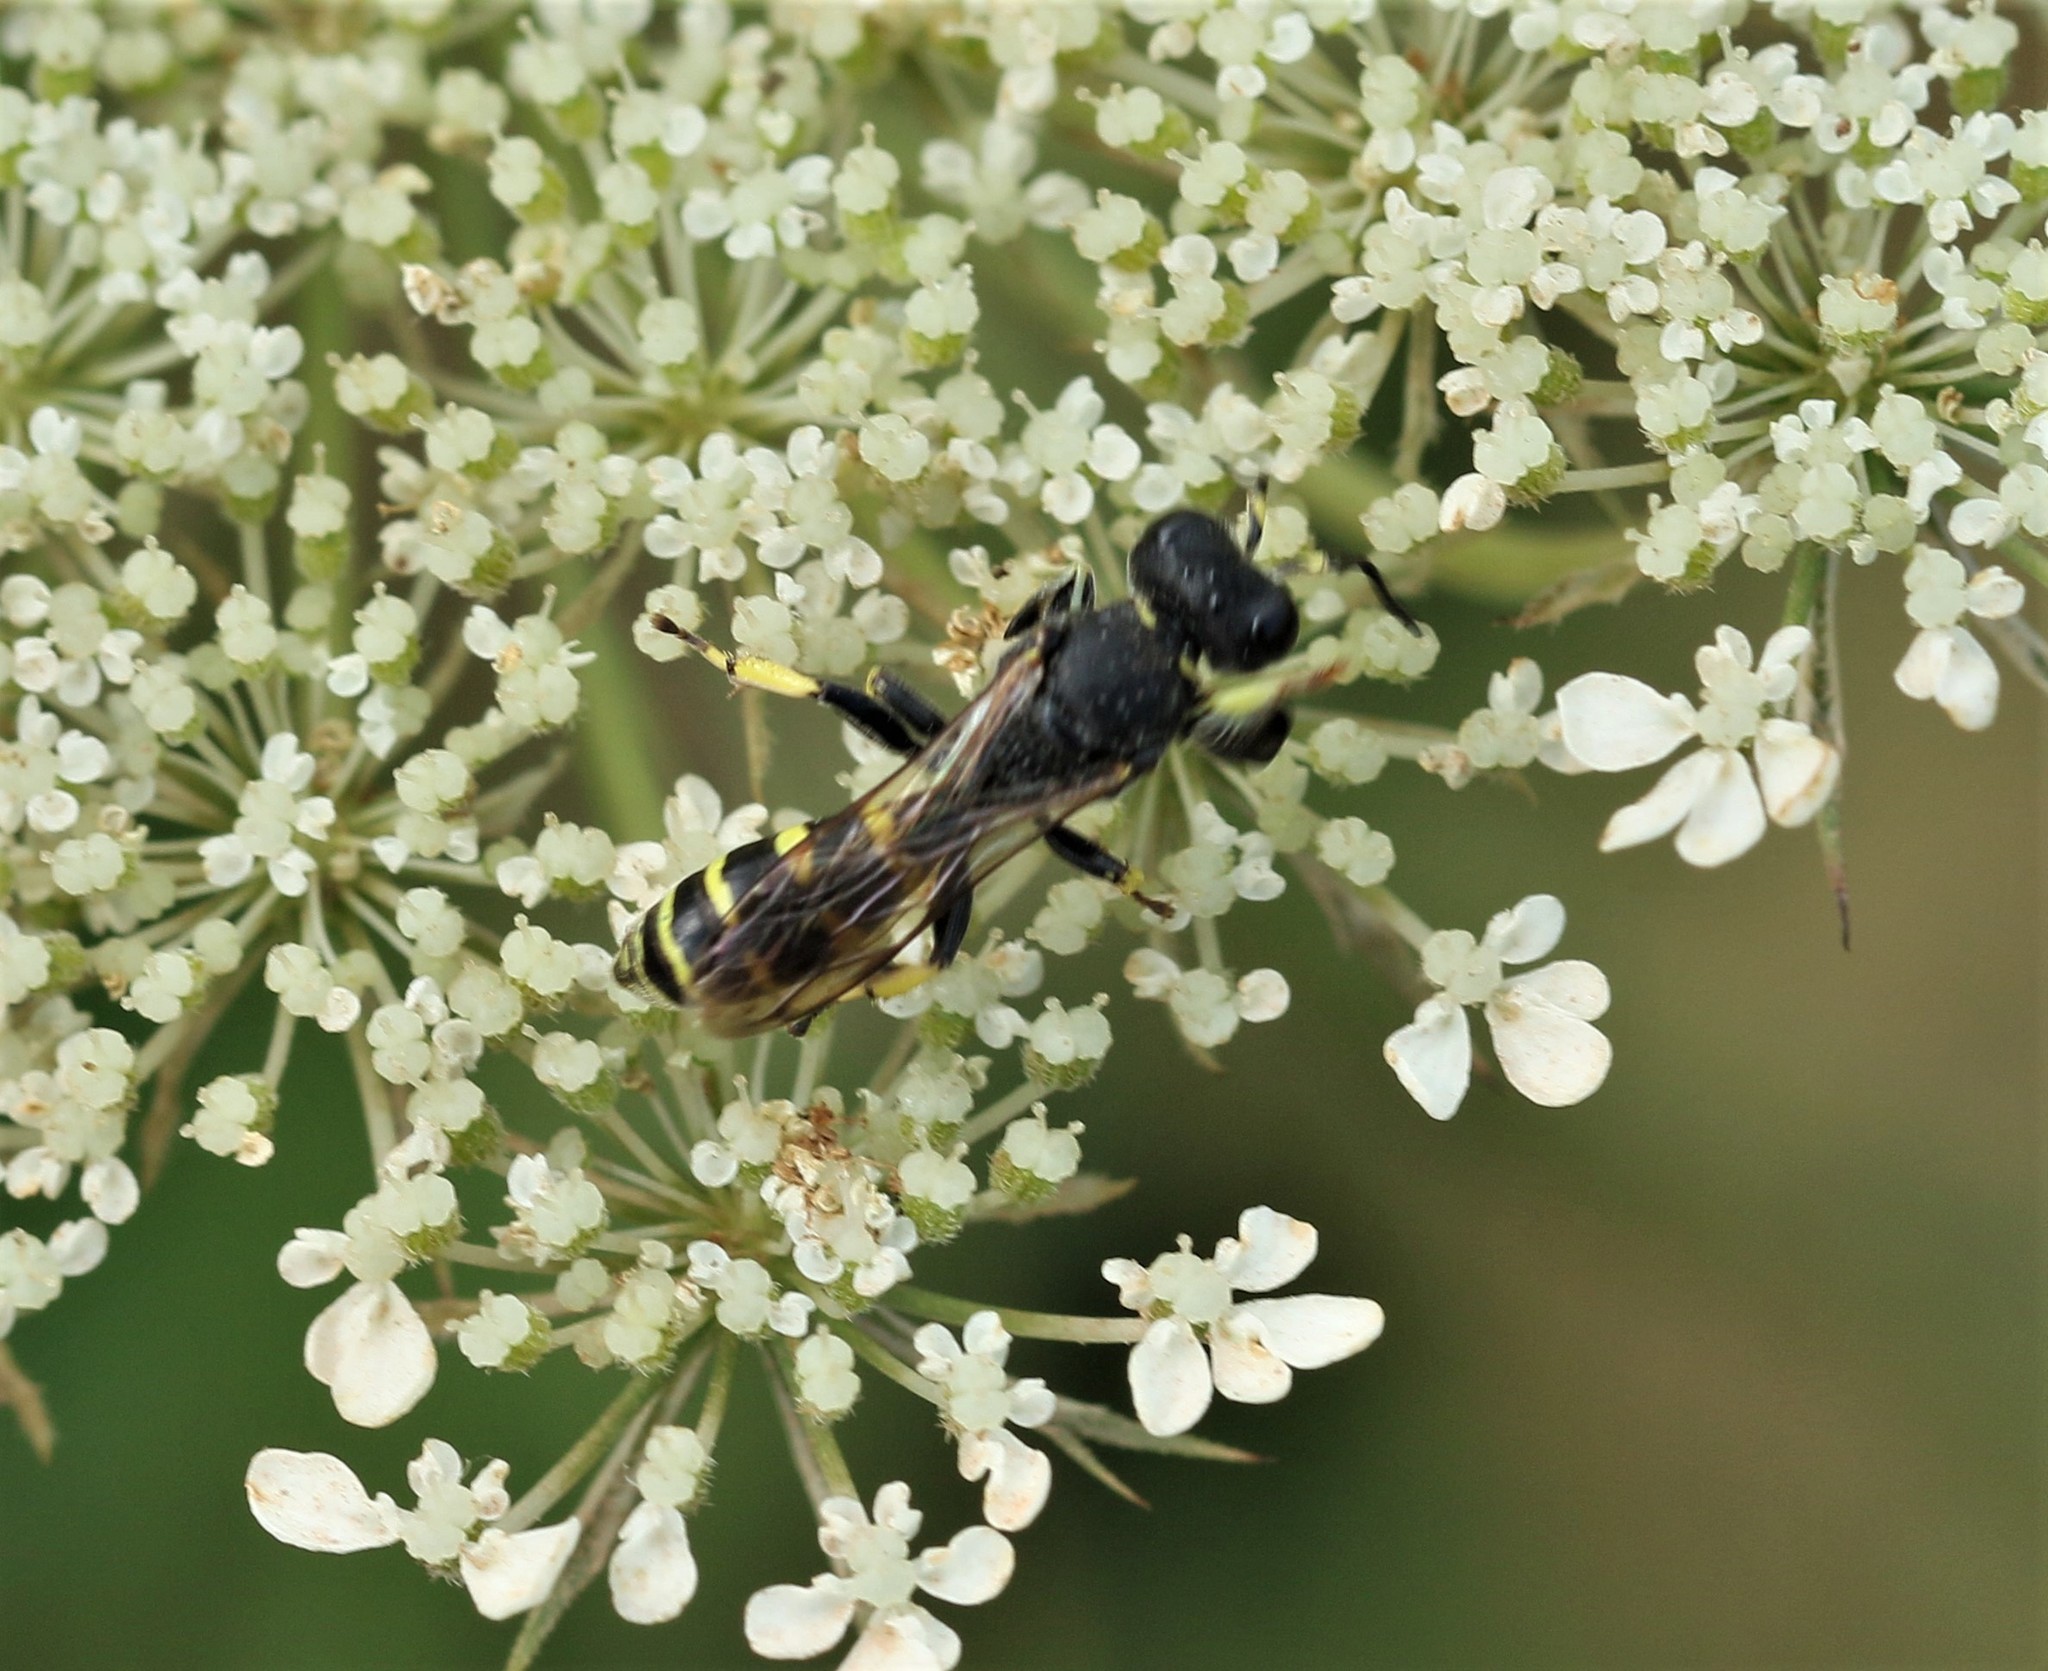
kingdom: Animalia
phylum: Arthropoda
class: Insecta
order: Hymenoptera
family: Crabronidae
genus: Crabro
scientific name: Crabro latipes
